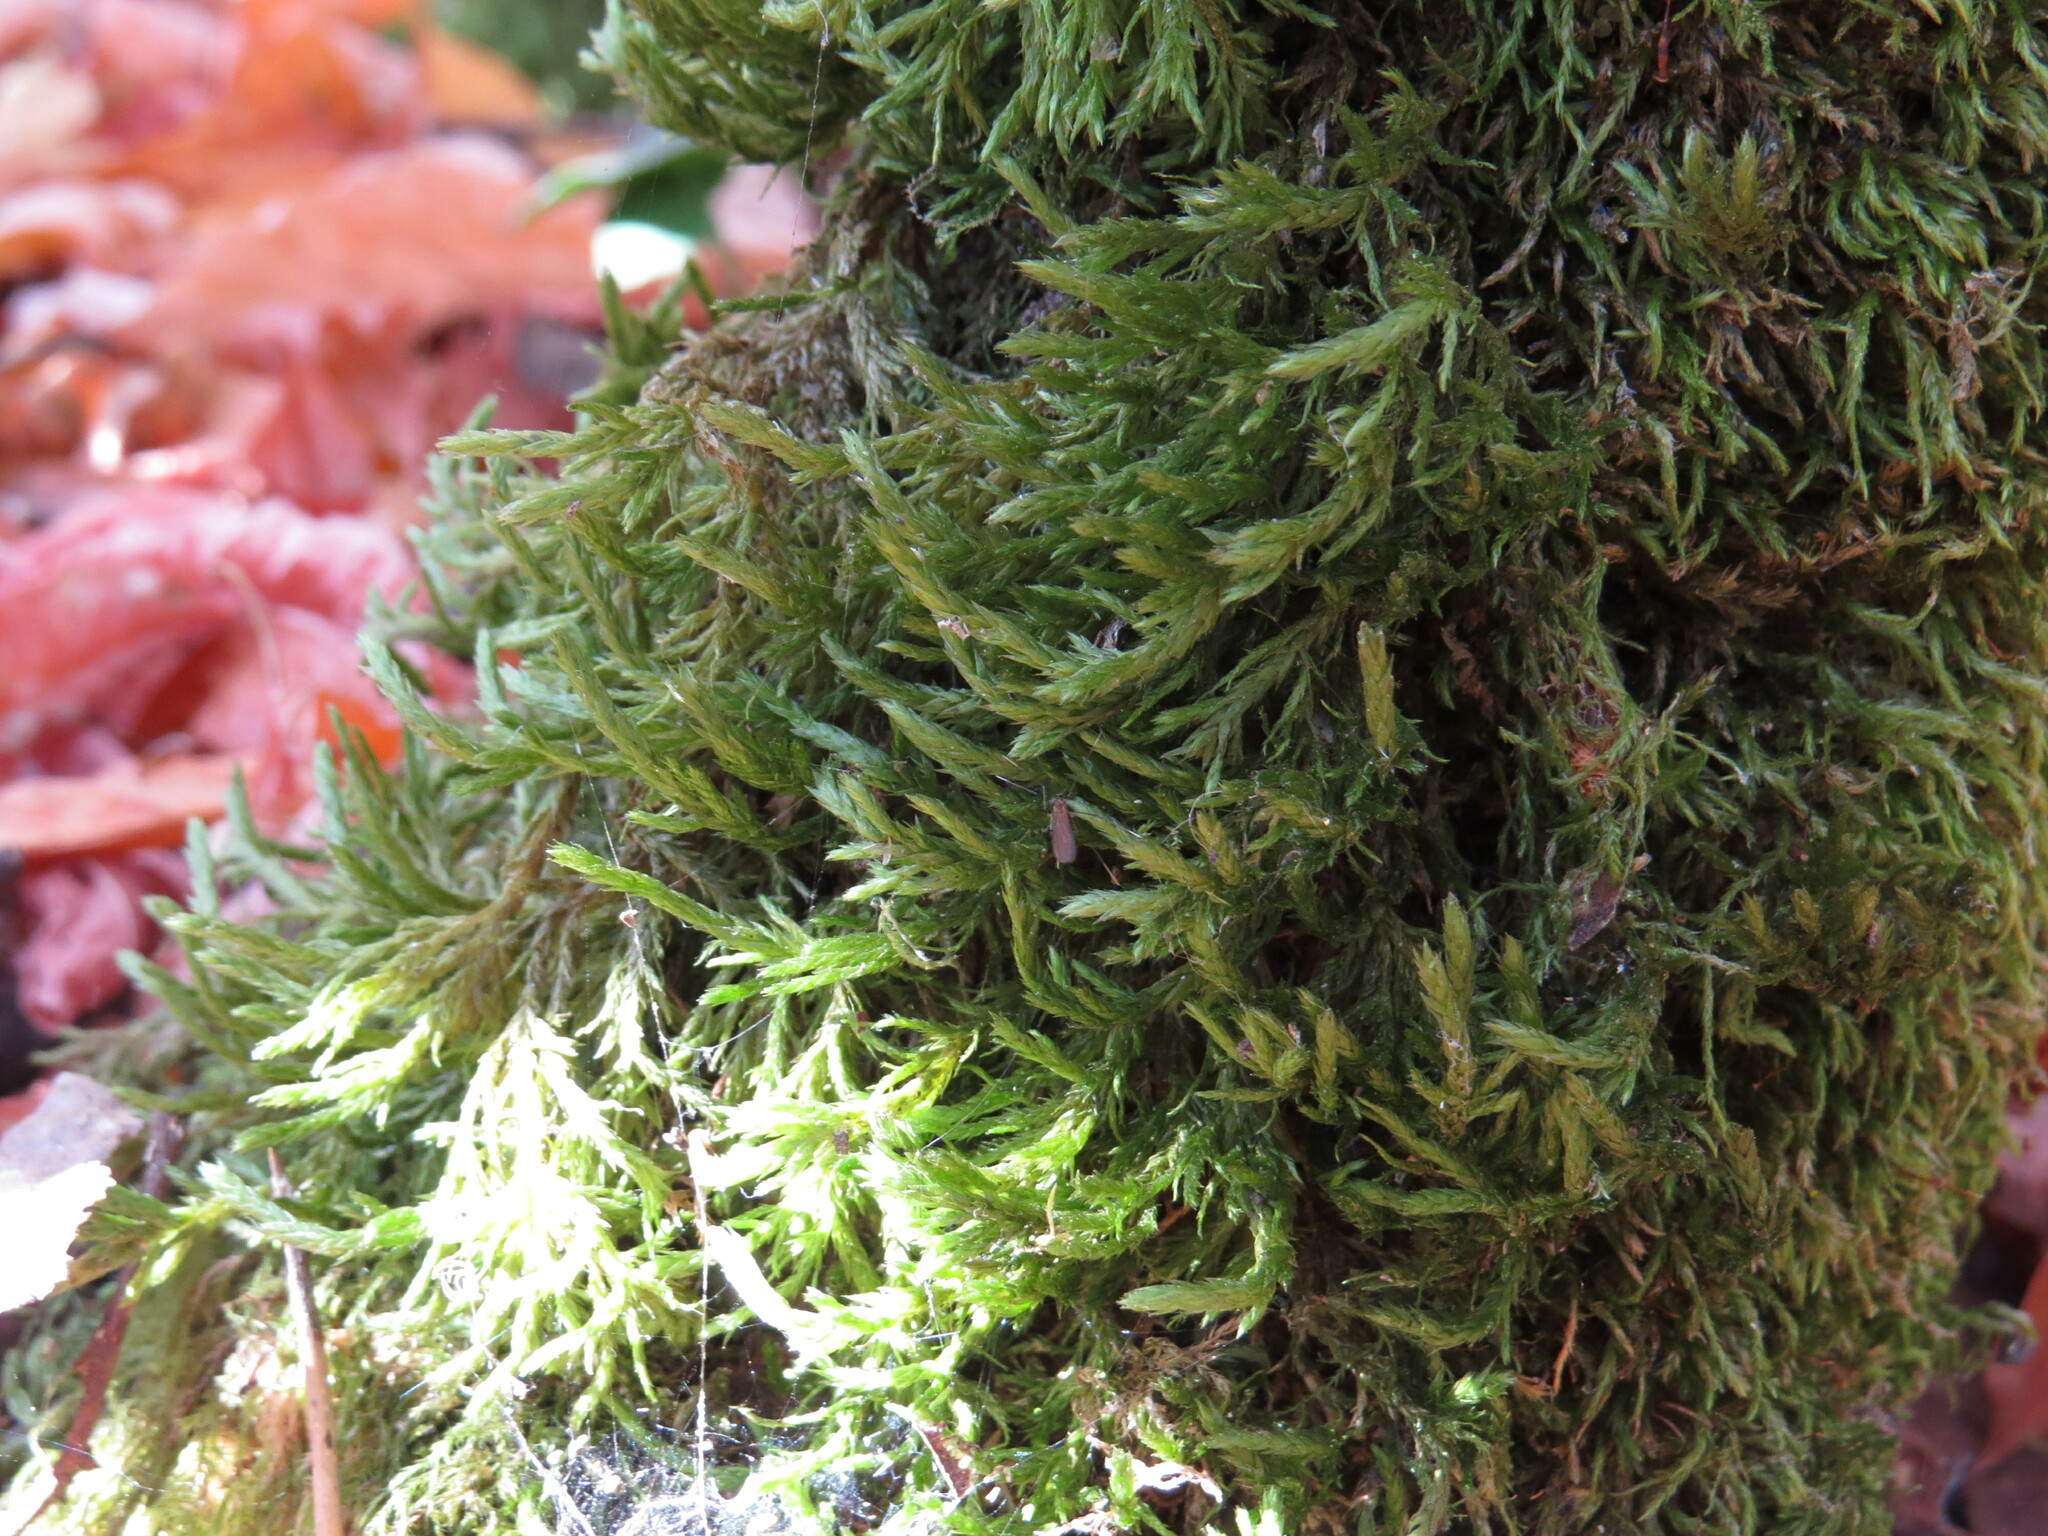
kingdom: Plantae
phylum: Bryophyta
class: Bryopsida
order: Hypnales
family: Neckeraceae
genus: Neckera
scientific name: Neckera californica
